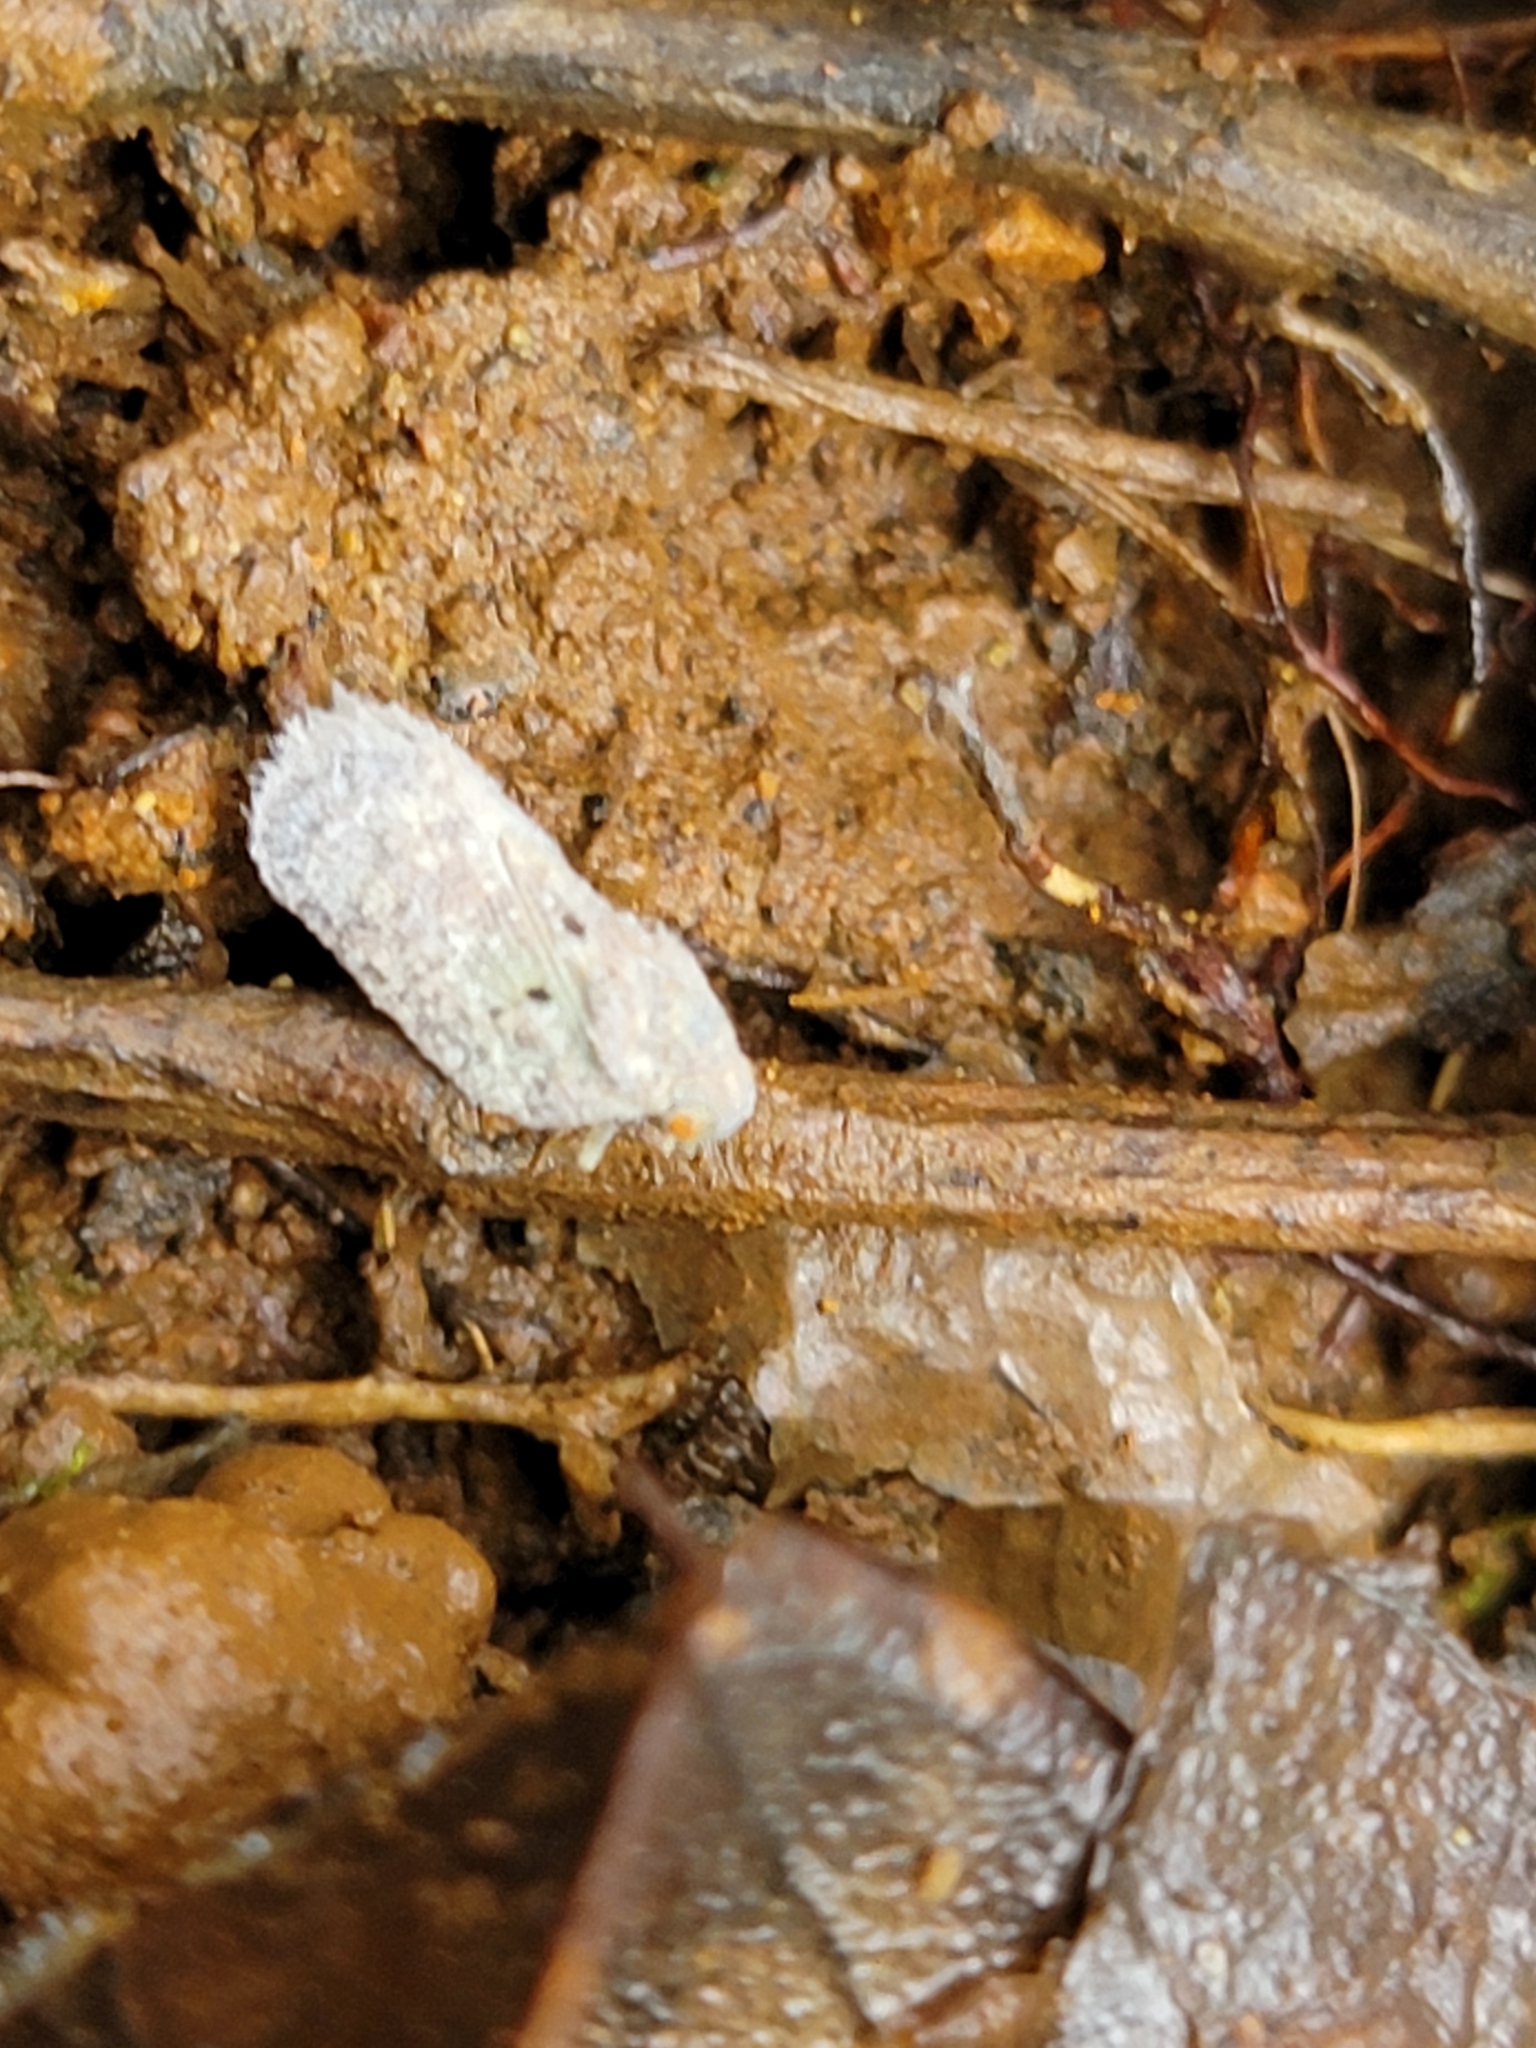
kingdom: Animalia
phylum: Arthropoda
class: Insecta
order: Hemiptera
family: Flatidae
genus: Melormenis
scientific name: Melormenis basalis
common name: Puerto rican planthopper
